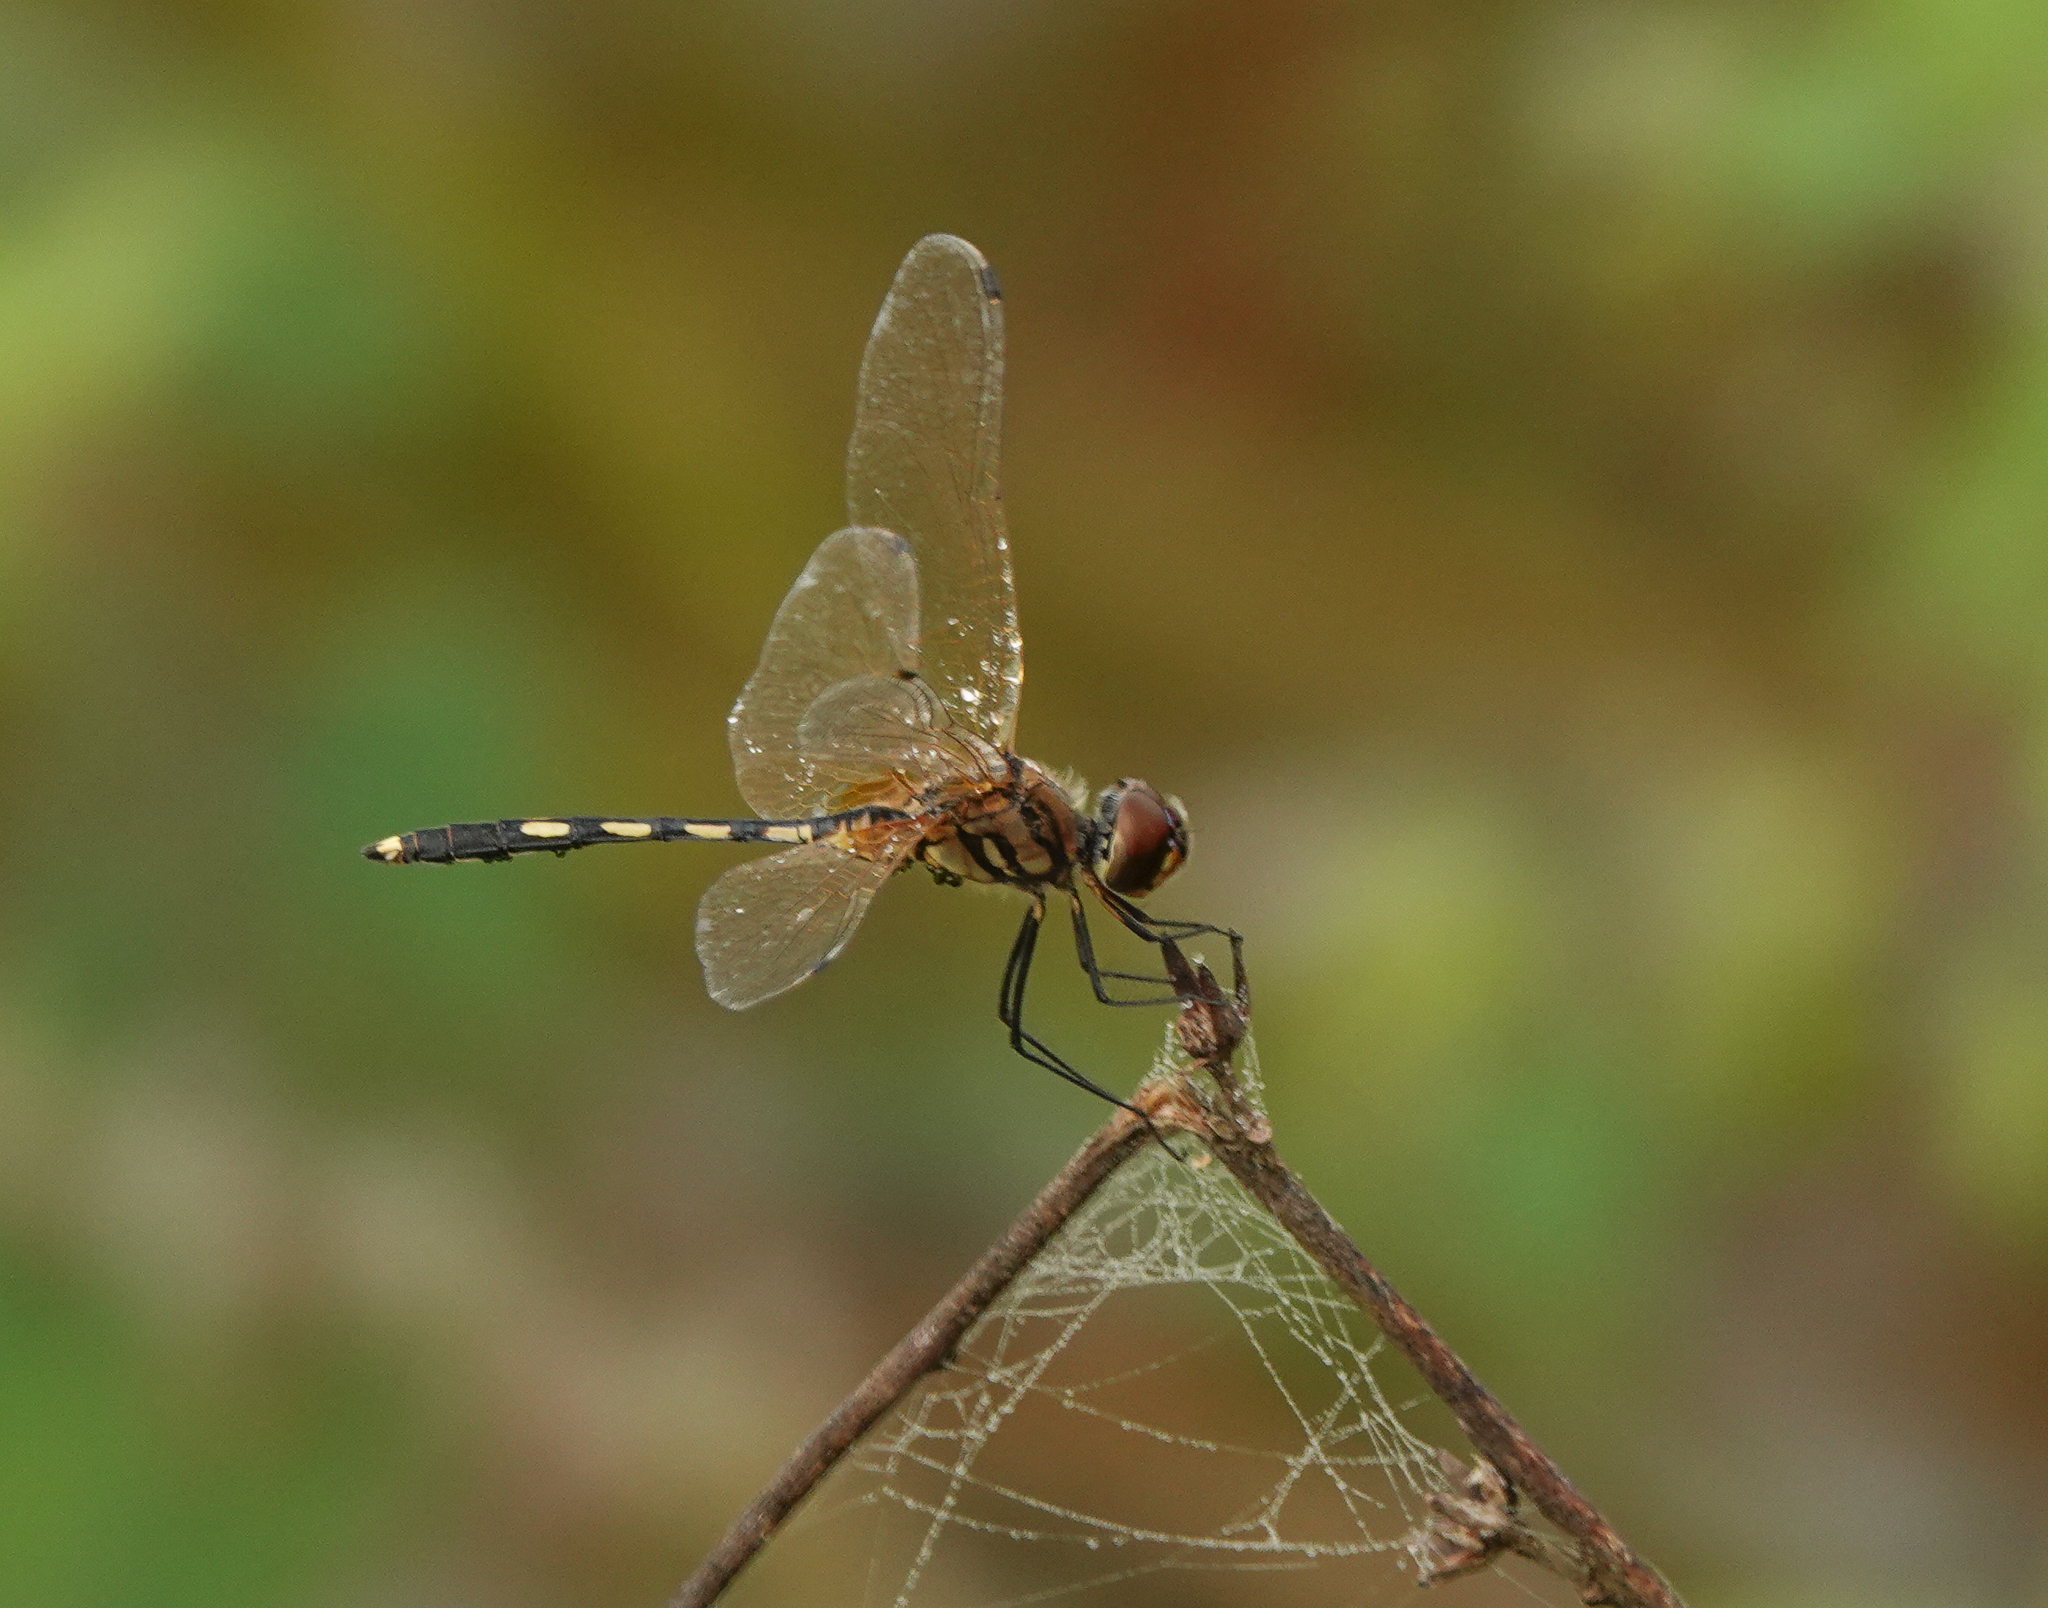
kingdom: Animalia
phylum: Arthropoda
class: Insecta
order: Odonata
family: Libellulidae
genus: Trithemis
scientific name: Trithemis pallidinervis
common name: Dancing dropwing
